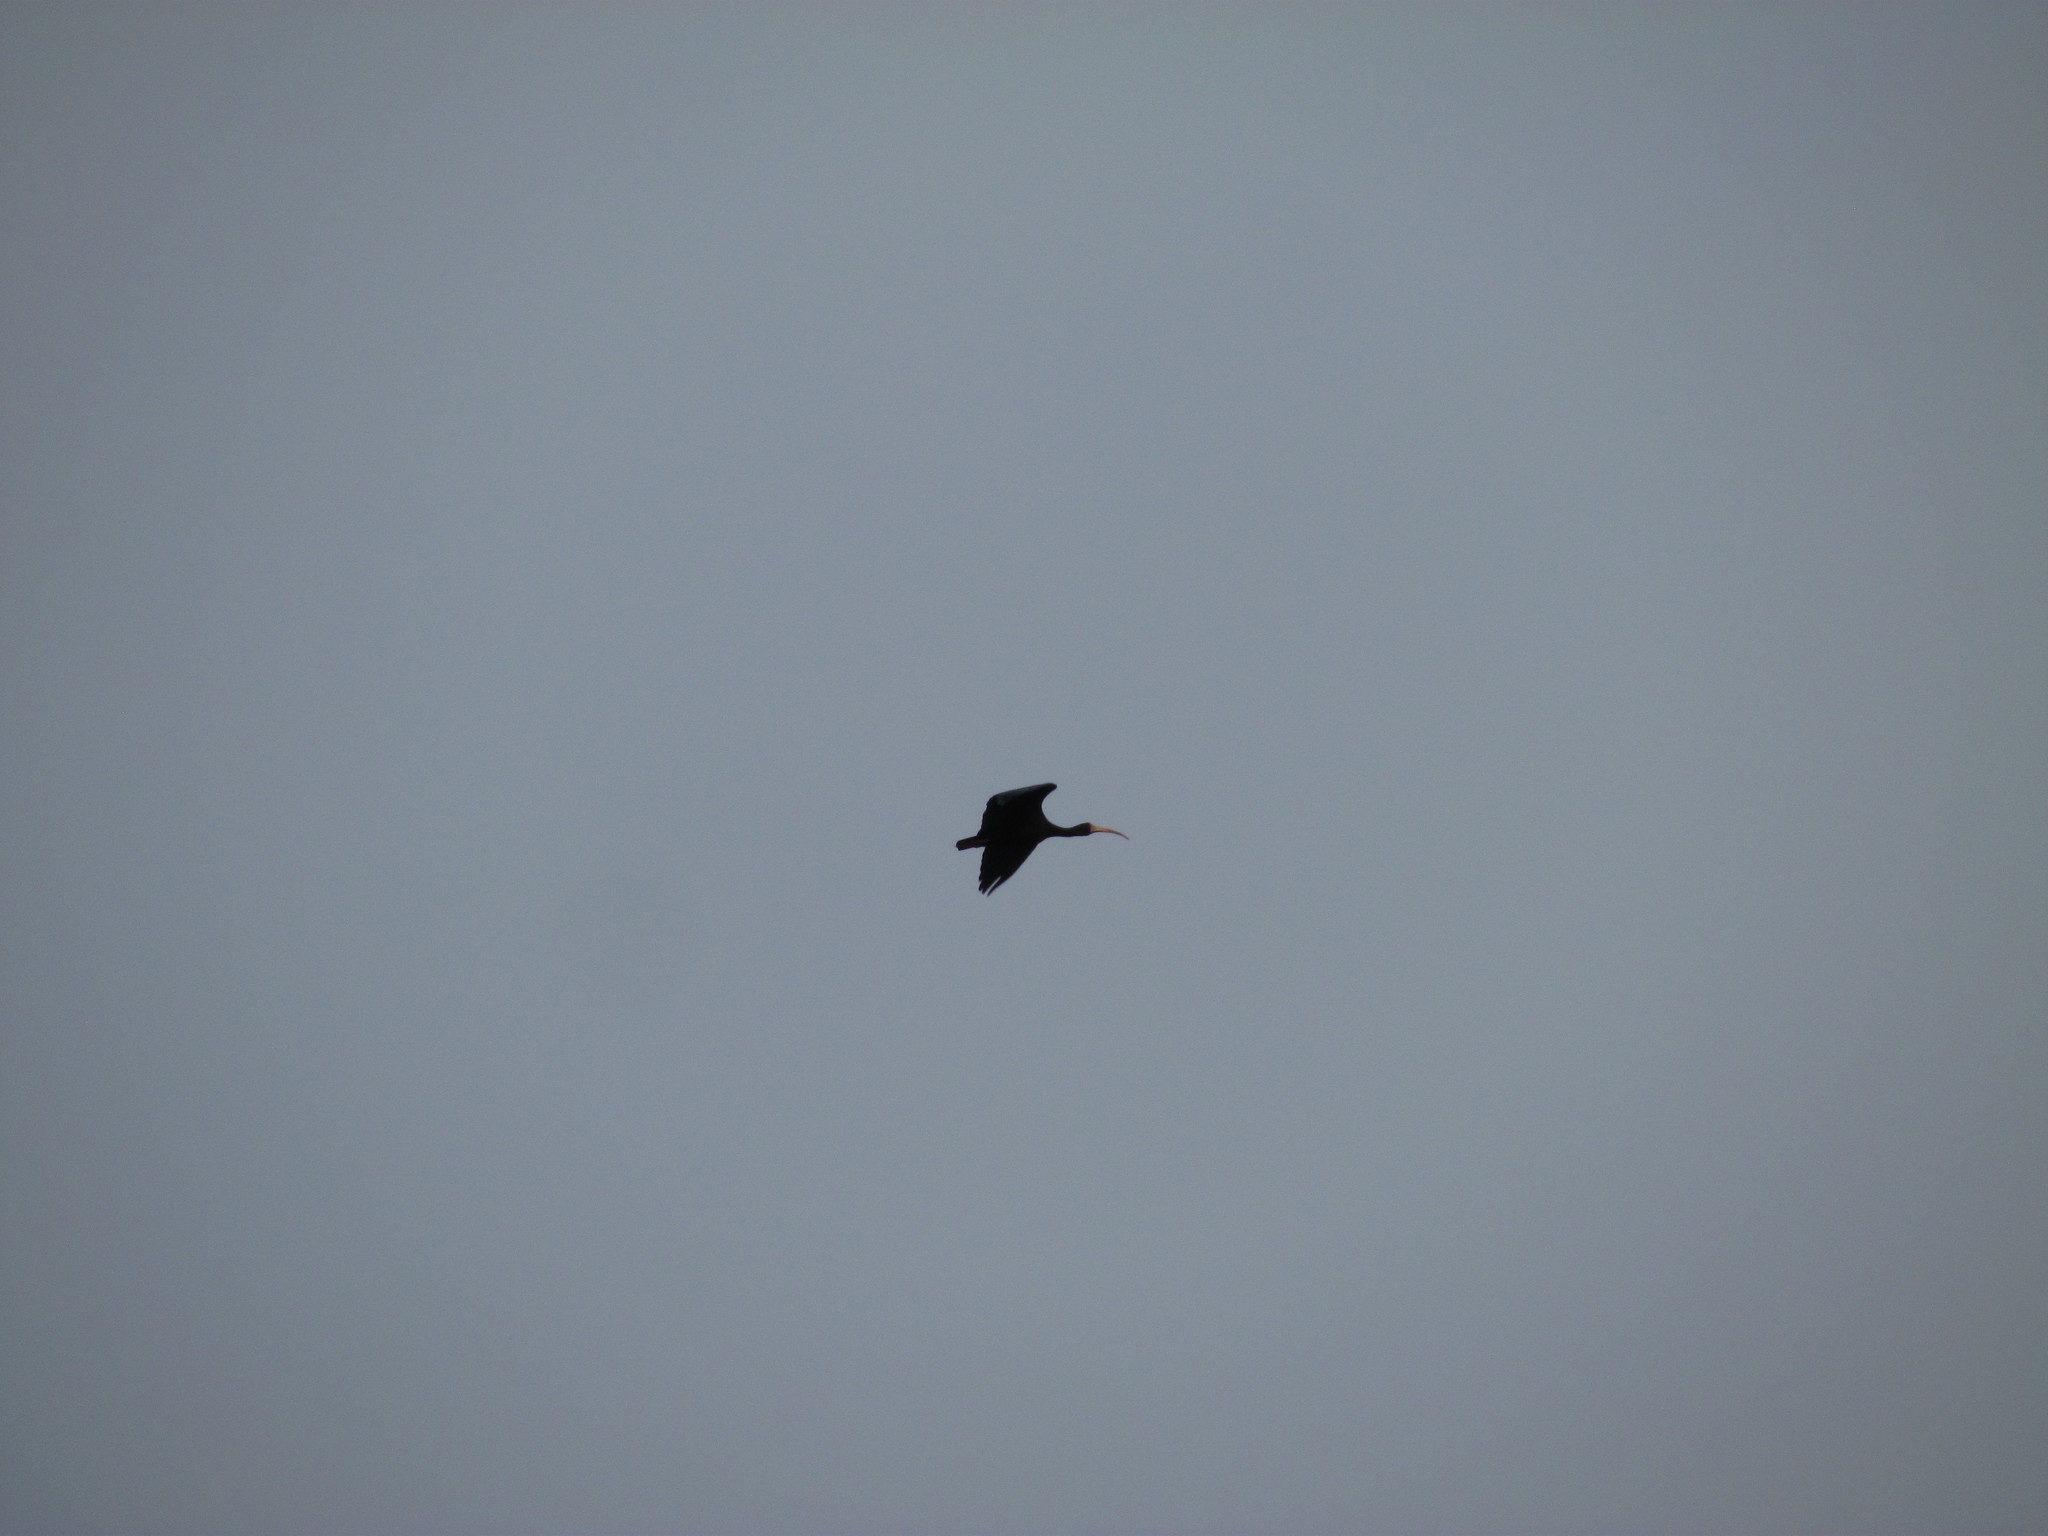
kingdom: Animalia
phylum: Chordata
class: Aves
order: Pelecaniformes
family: Threskiornithidae
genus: Phimosus
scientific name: Phimosus infuscatus
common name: Bare-faced ibis
